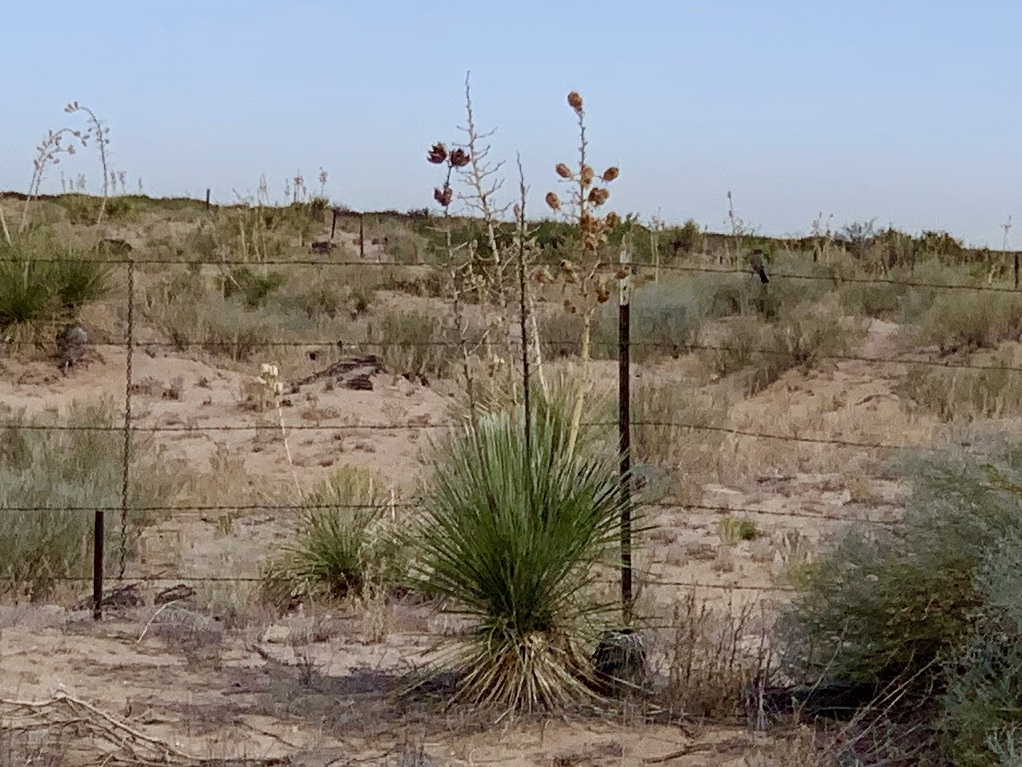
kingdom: Plantae
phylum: Tracheophyta
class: Liliopsida
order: Asparagales
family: Asparagaceae
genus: Yucca
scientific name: Yucca elata
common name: Palmella
